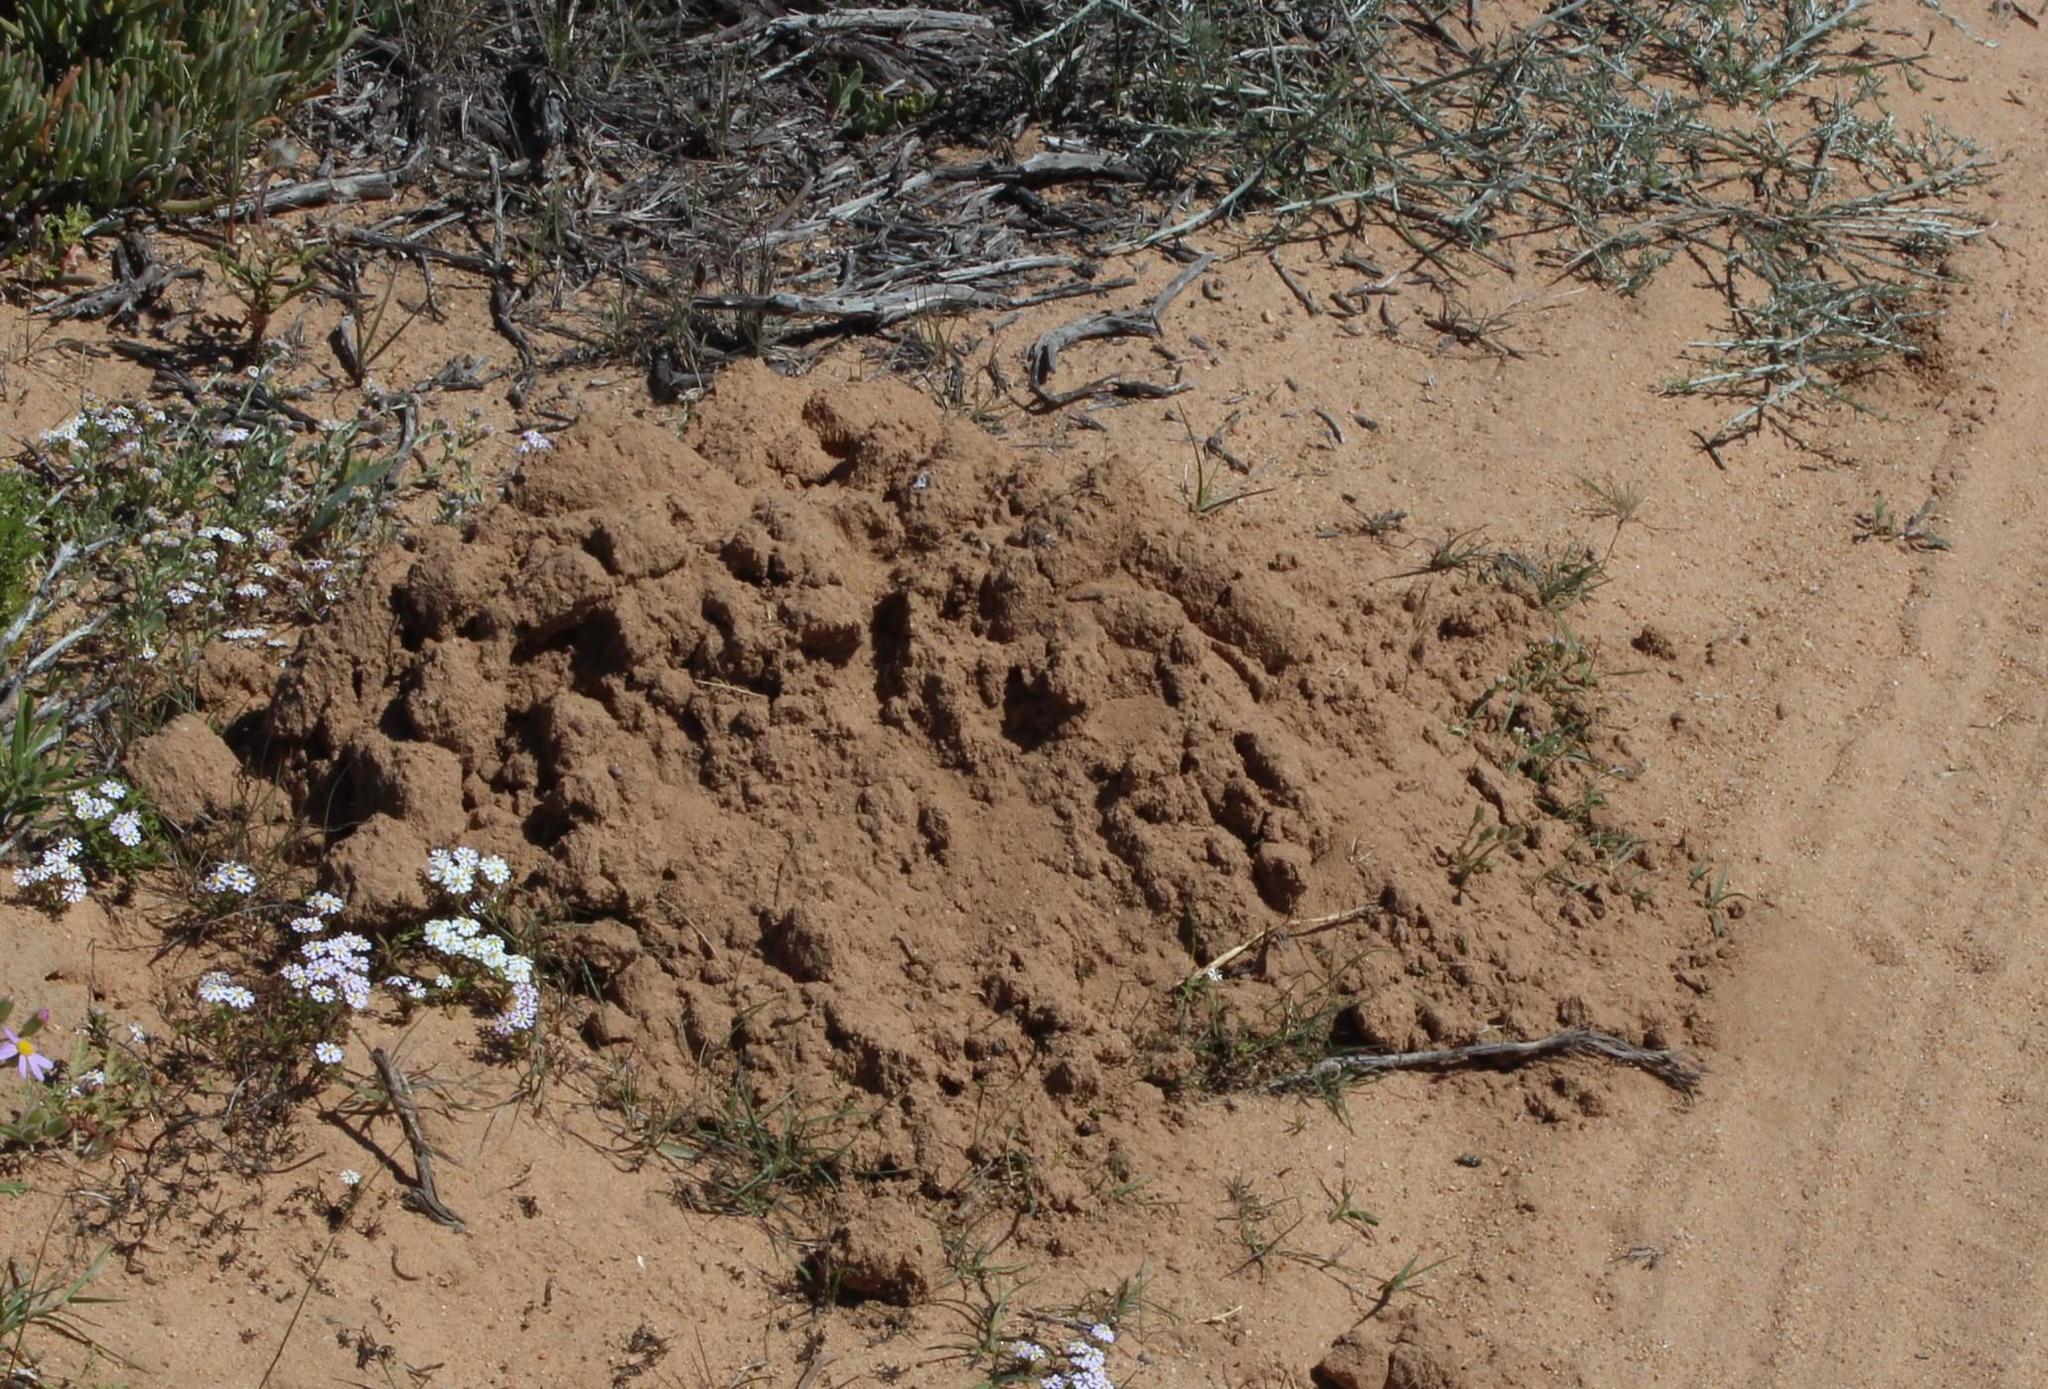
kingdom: Animalia
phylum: Chordata
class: Mammalia
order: Rodentia
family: Bathyergidae
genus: Bathyergus
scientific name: Bathyergus janetta
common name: Namaqua dune mole-rat
